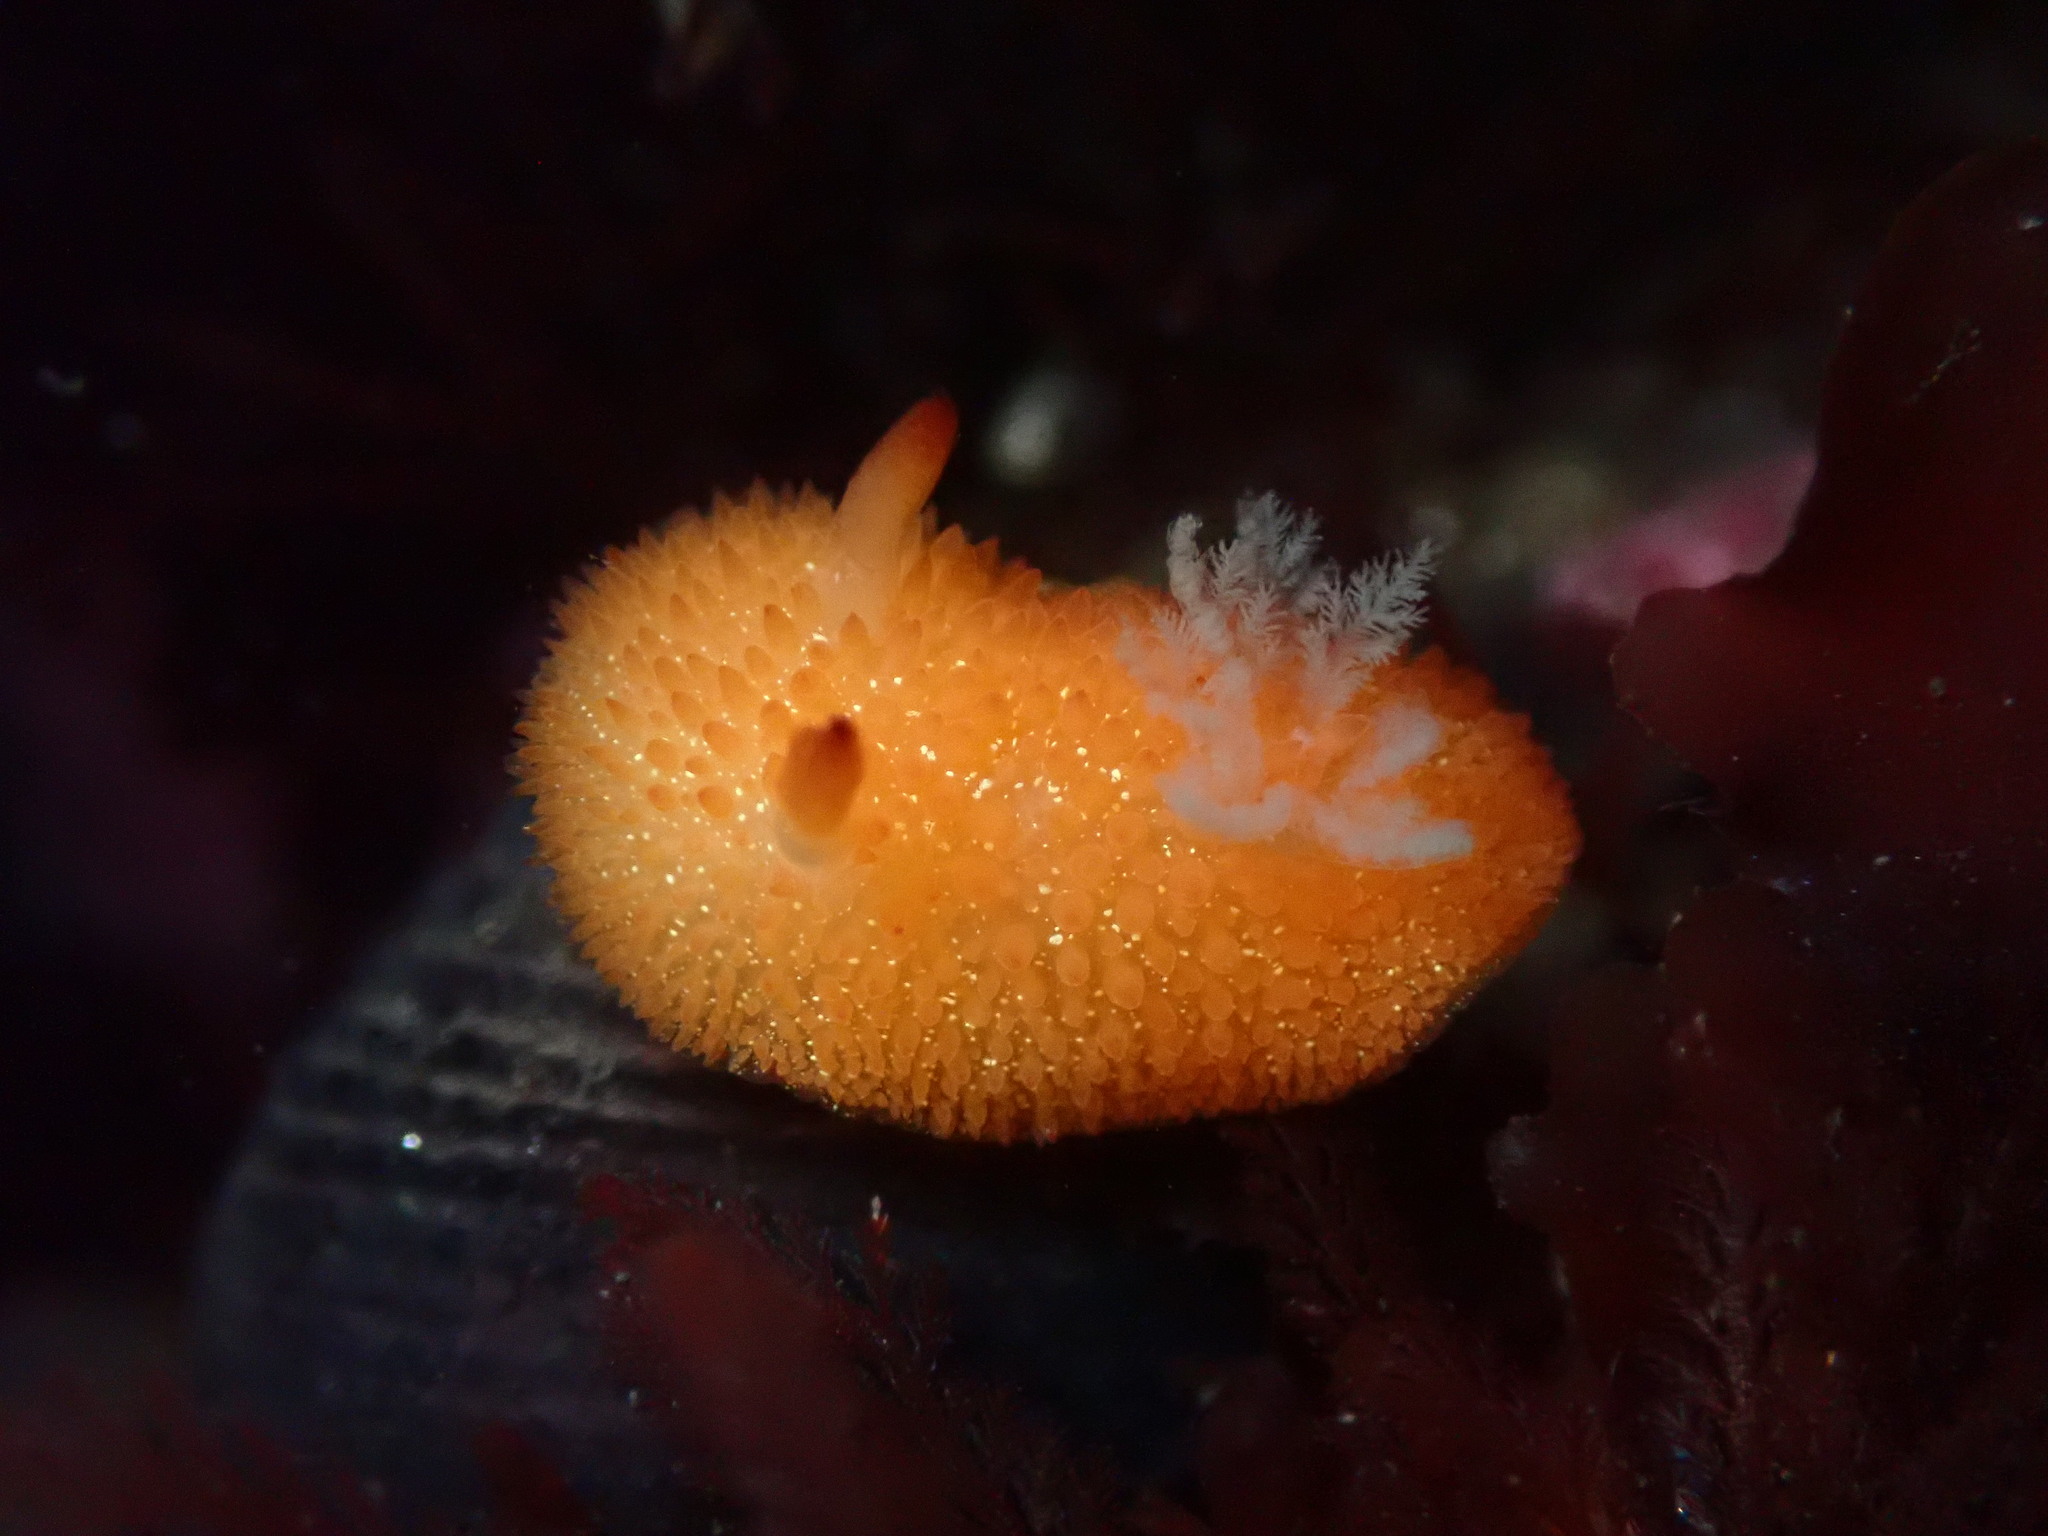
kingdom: Animalia
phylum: Mollusca
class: Gastropoda
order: Nudibranchia
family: Onchidorididae
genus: Acanthodoris
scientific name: Acanthodoris lutea
